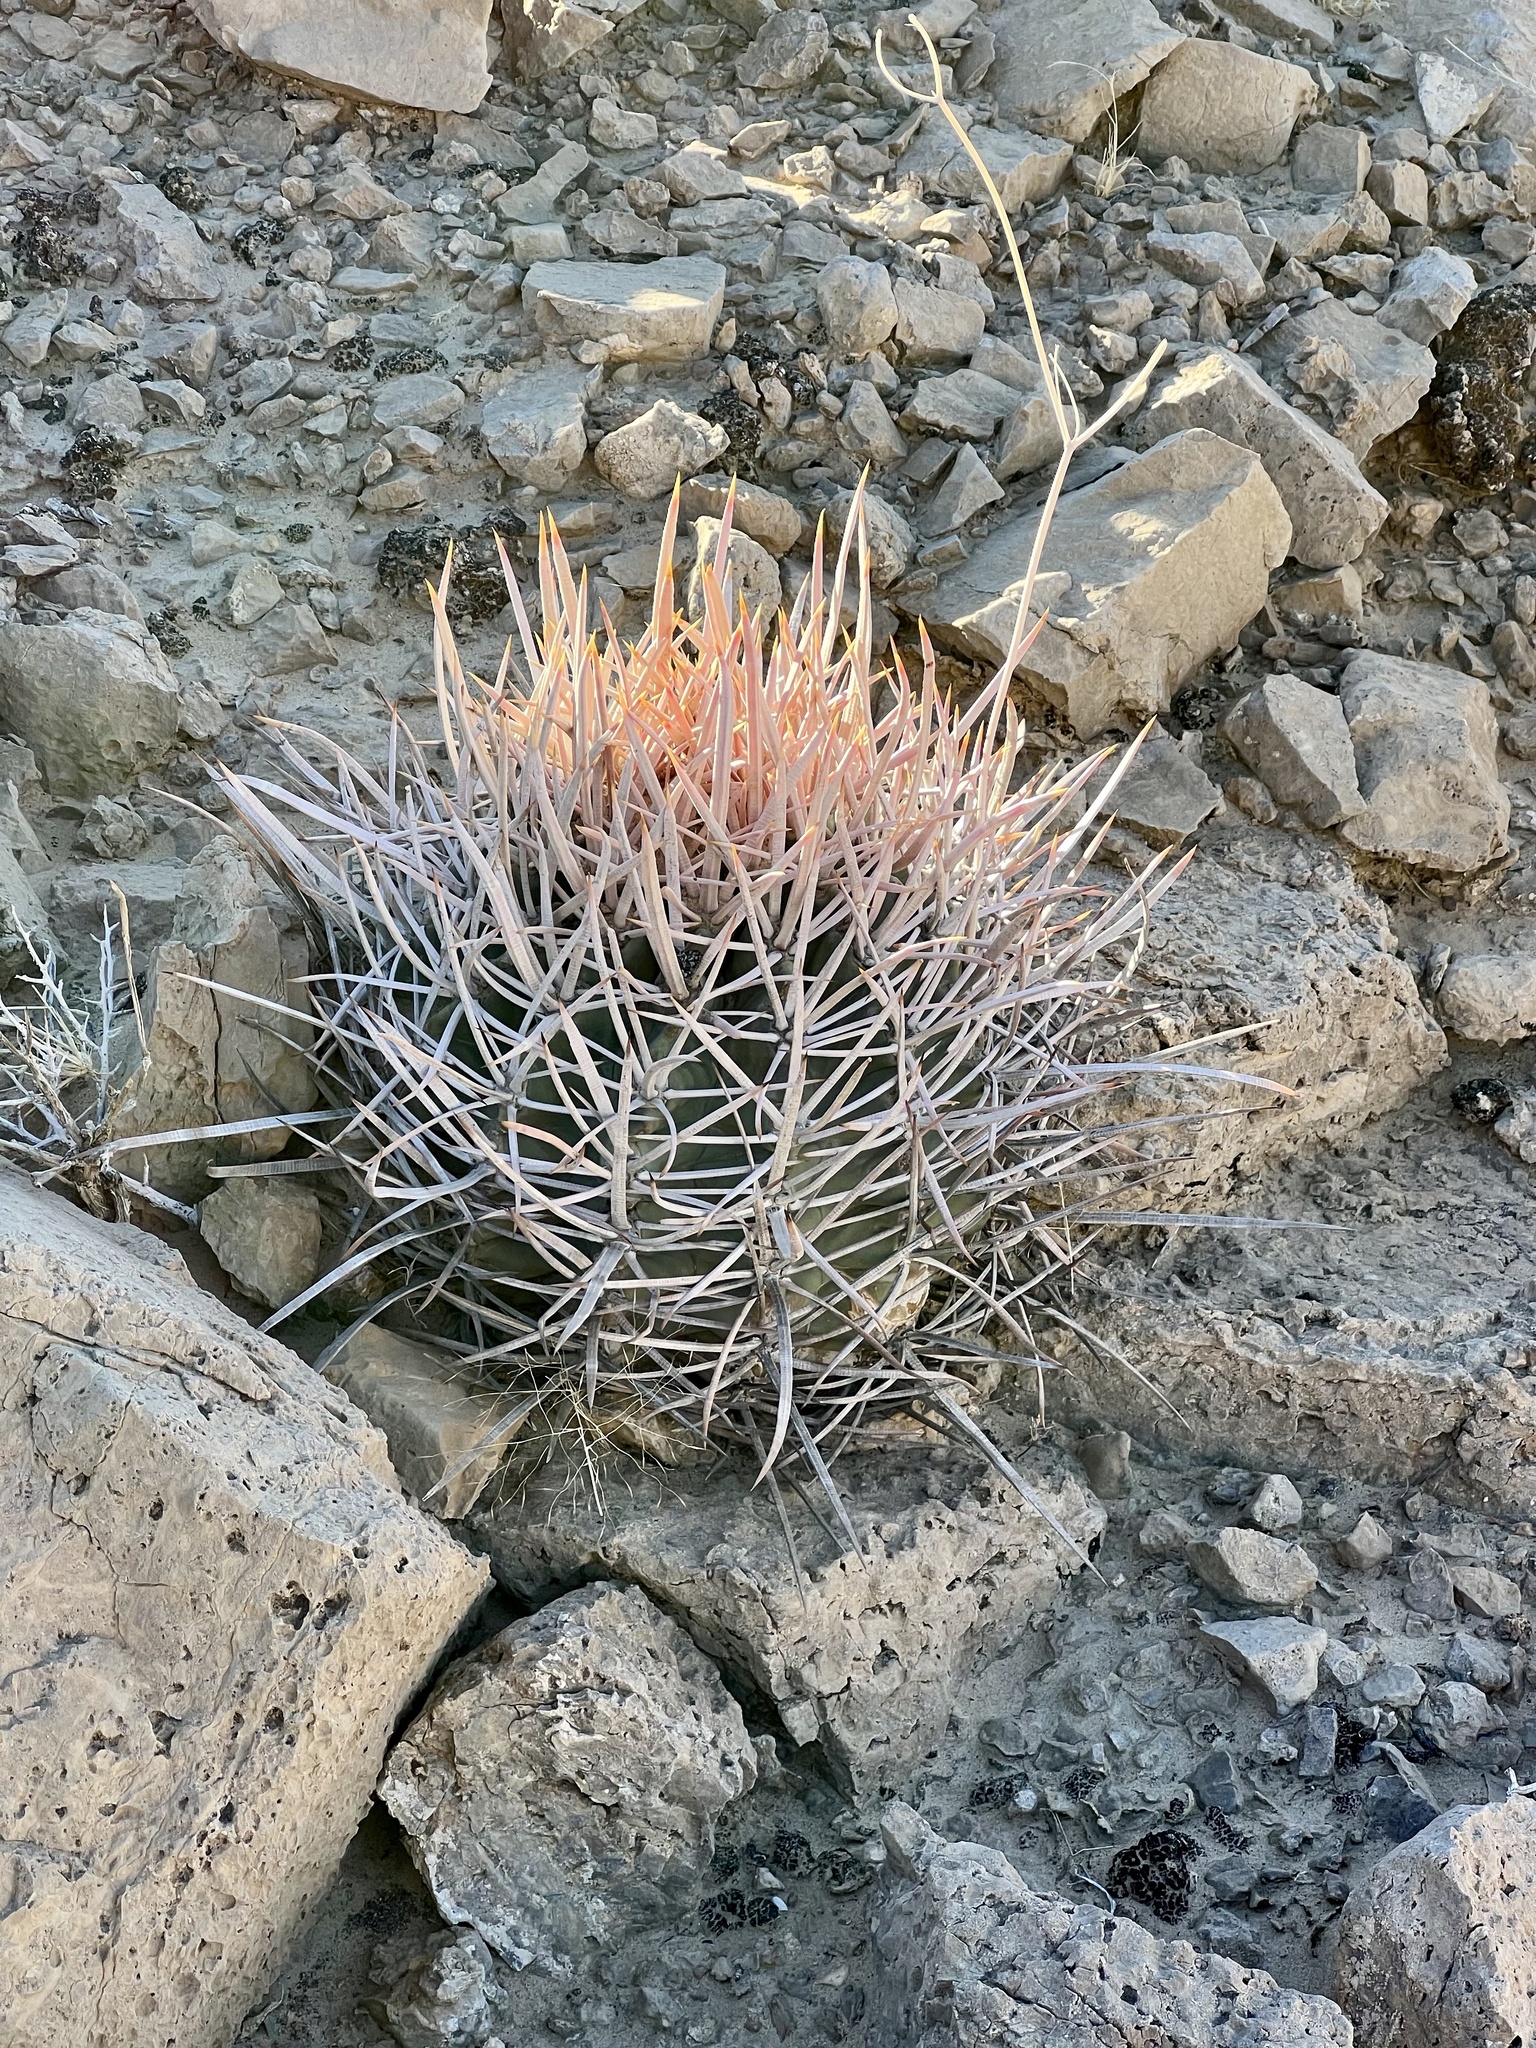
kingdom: Plantae
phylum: Tracheophyta
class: Magnoliopsida
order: Caryophyllales
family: Cactaceae
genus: Echinocactus
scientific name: Echinocactus polycephalus
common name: Cottontop cactus
